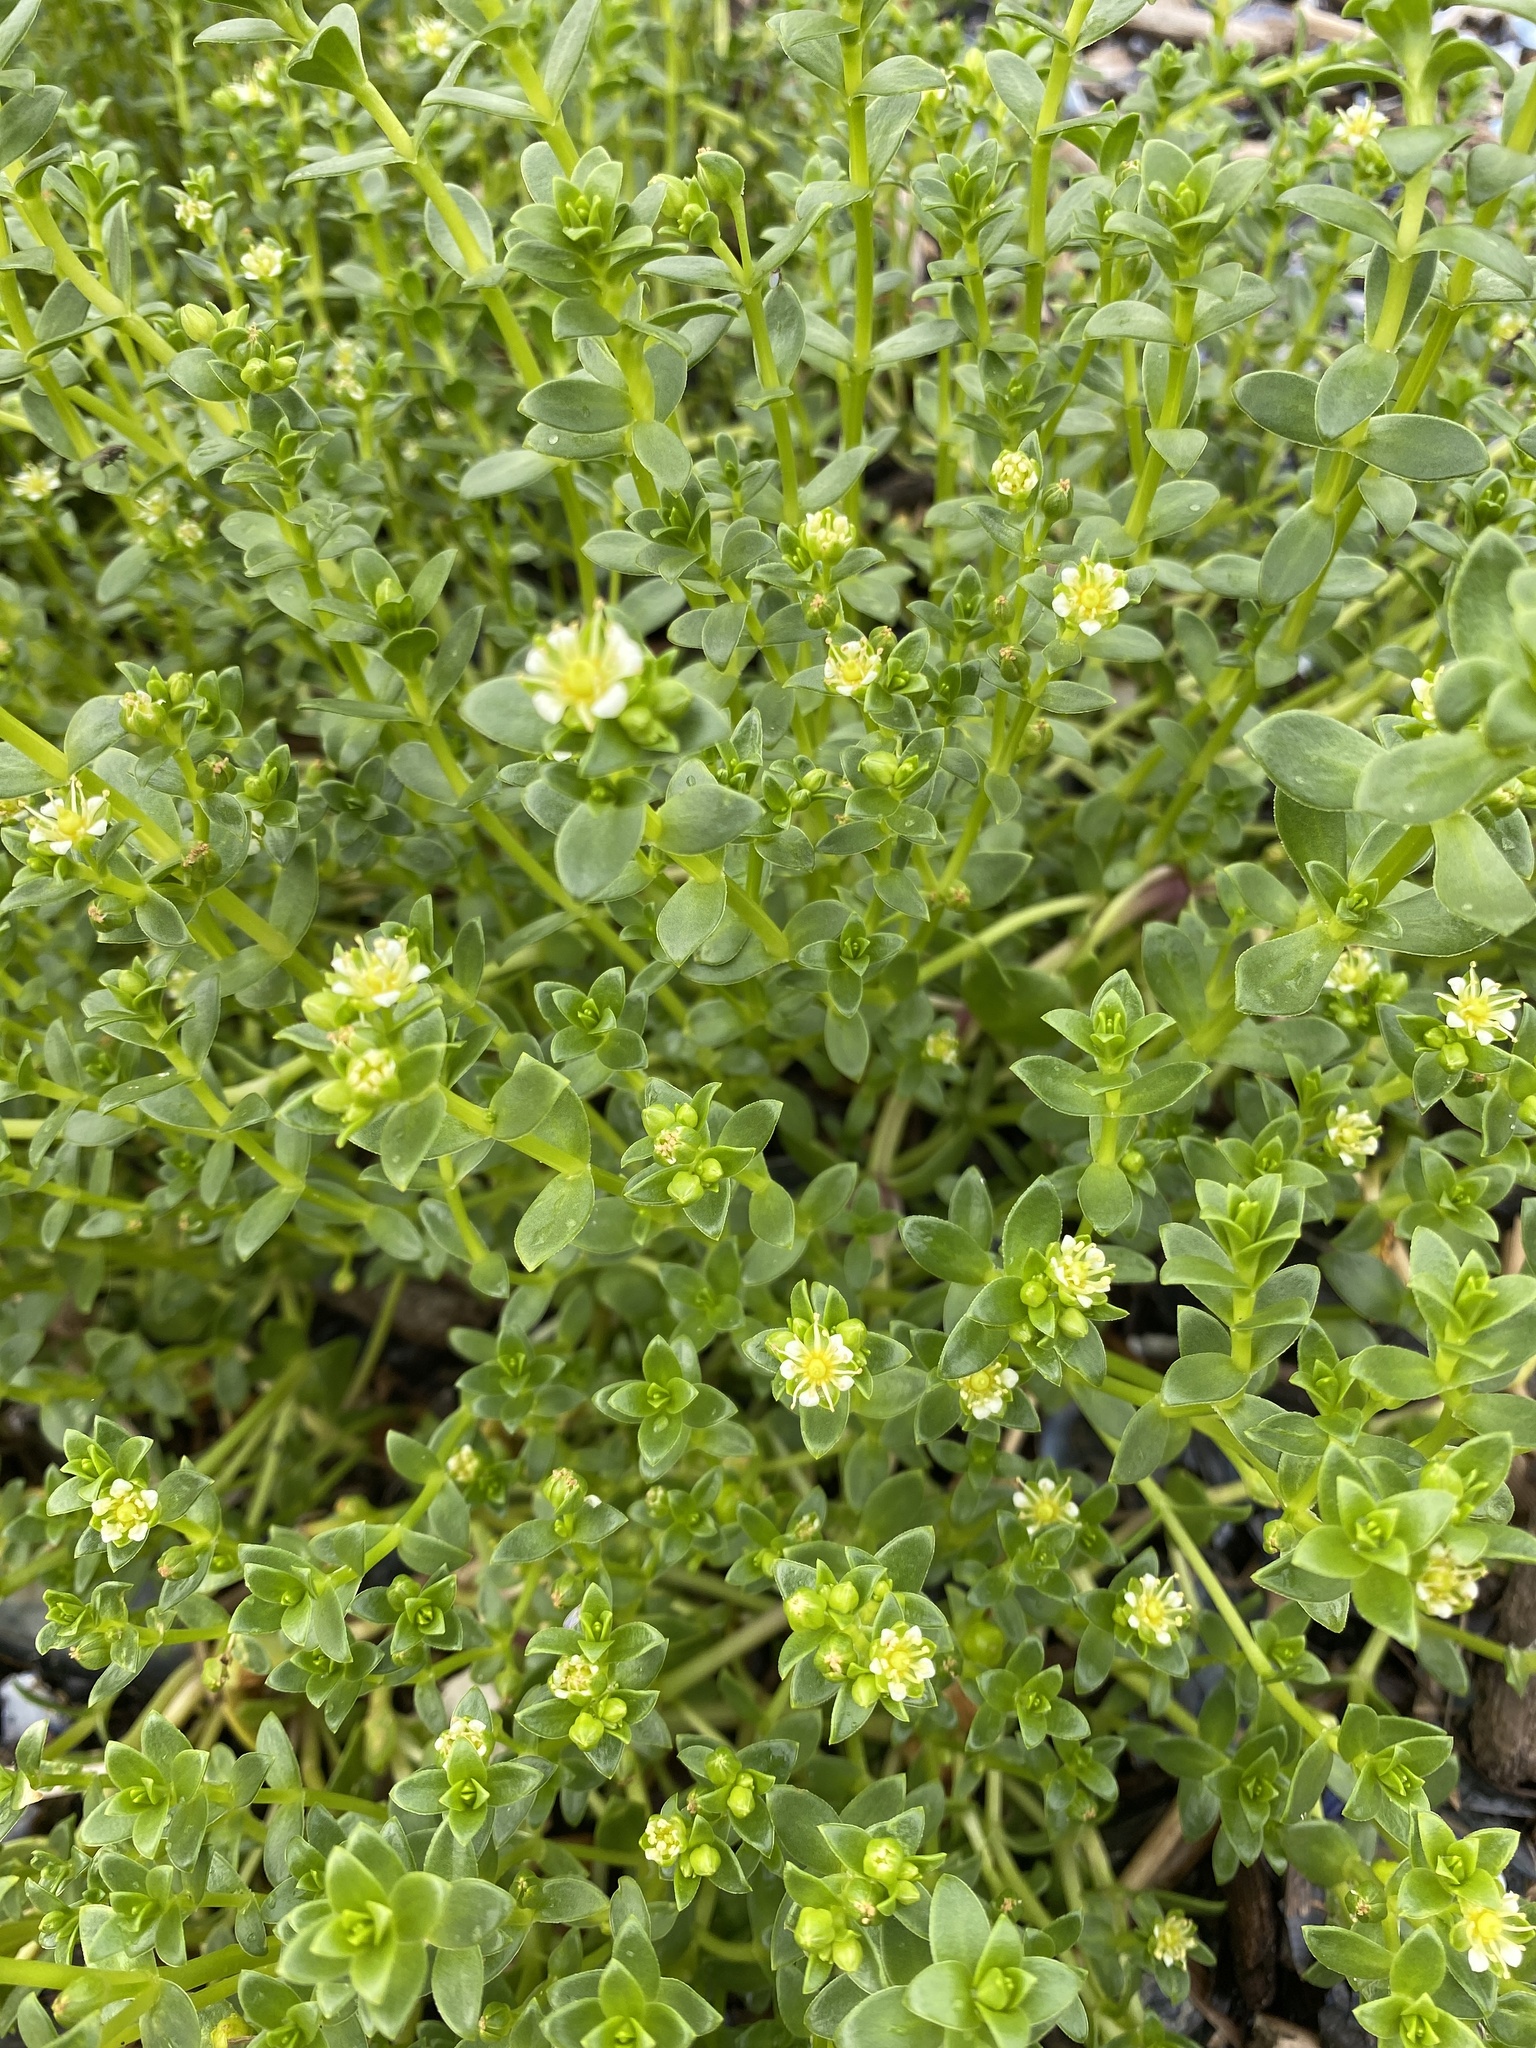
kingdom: Plantae
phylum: Tracheophyta
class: Magnoliopsida
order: Caryophyllales
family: Caryophyllaceae
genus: Honckenya
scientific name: Honckenya peploides
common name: Sea sandwort
